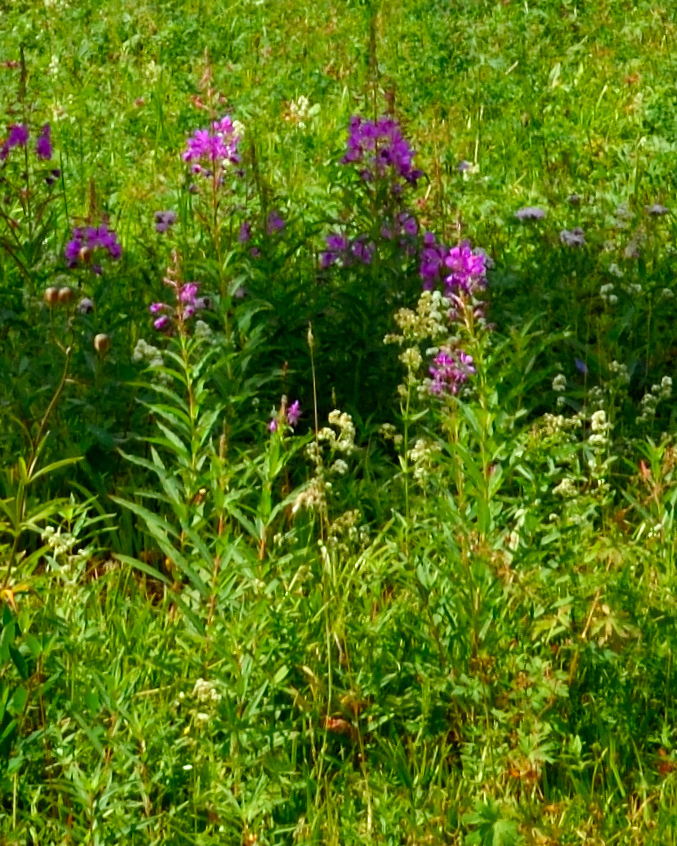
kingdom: Plantae
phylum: Tracheophyta
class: Magnoliopsida
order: Myrtales
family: Onagraceae
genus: Chamaenerion
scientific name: Chamaenerion angustifolium
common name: Fireweed
